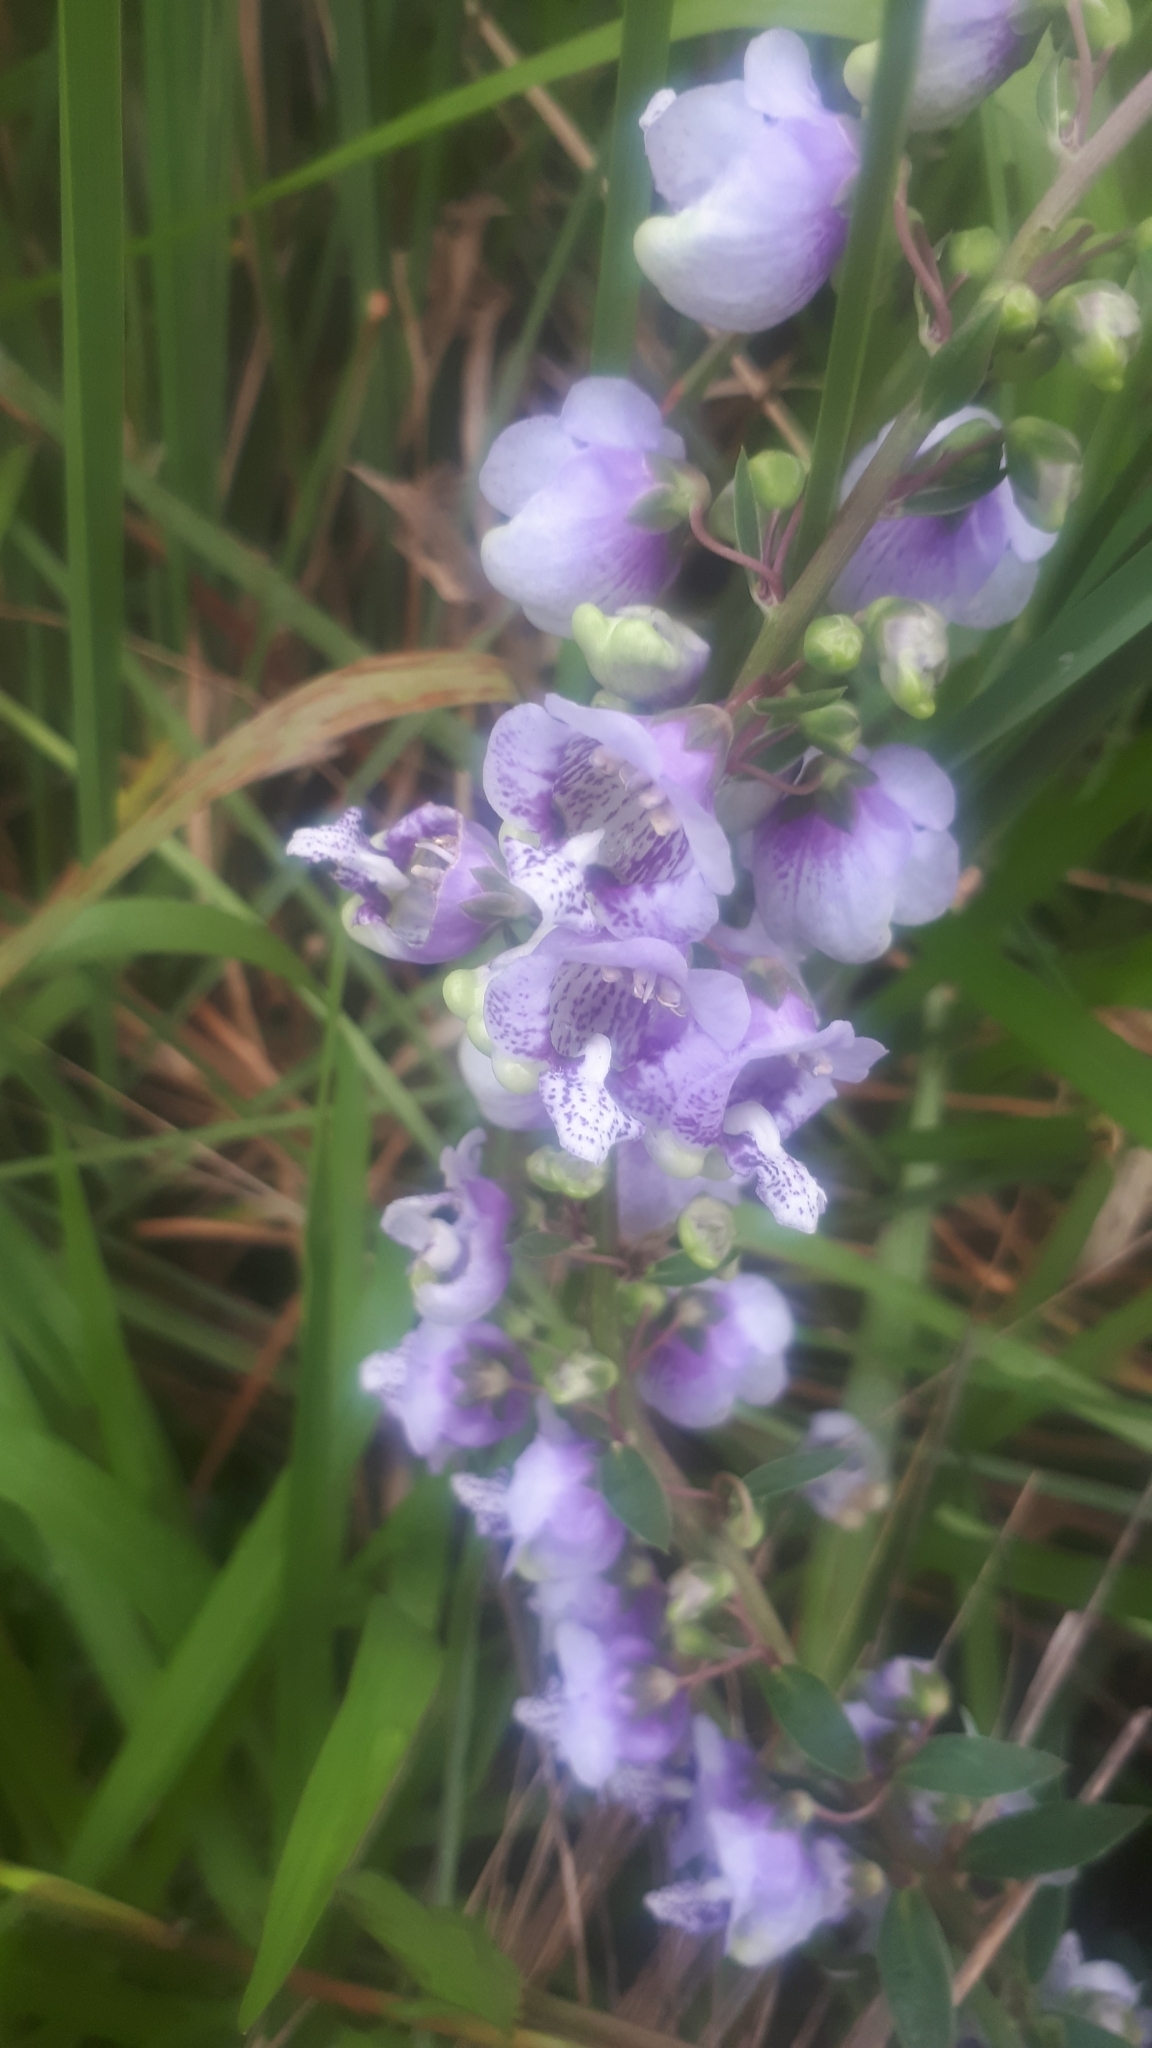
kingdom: Plantae
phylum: Tracheophyta
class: Magnoliopsida
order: Lamiales
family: Plantaginaceae
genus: Angelonia
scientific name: Angelonia integerrima
